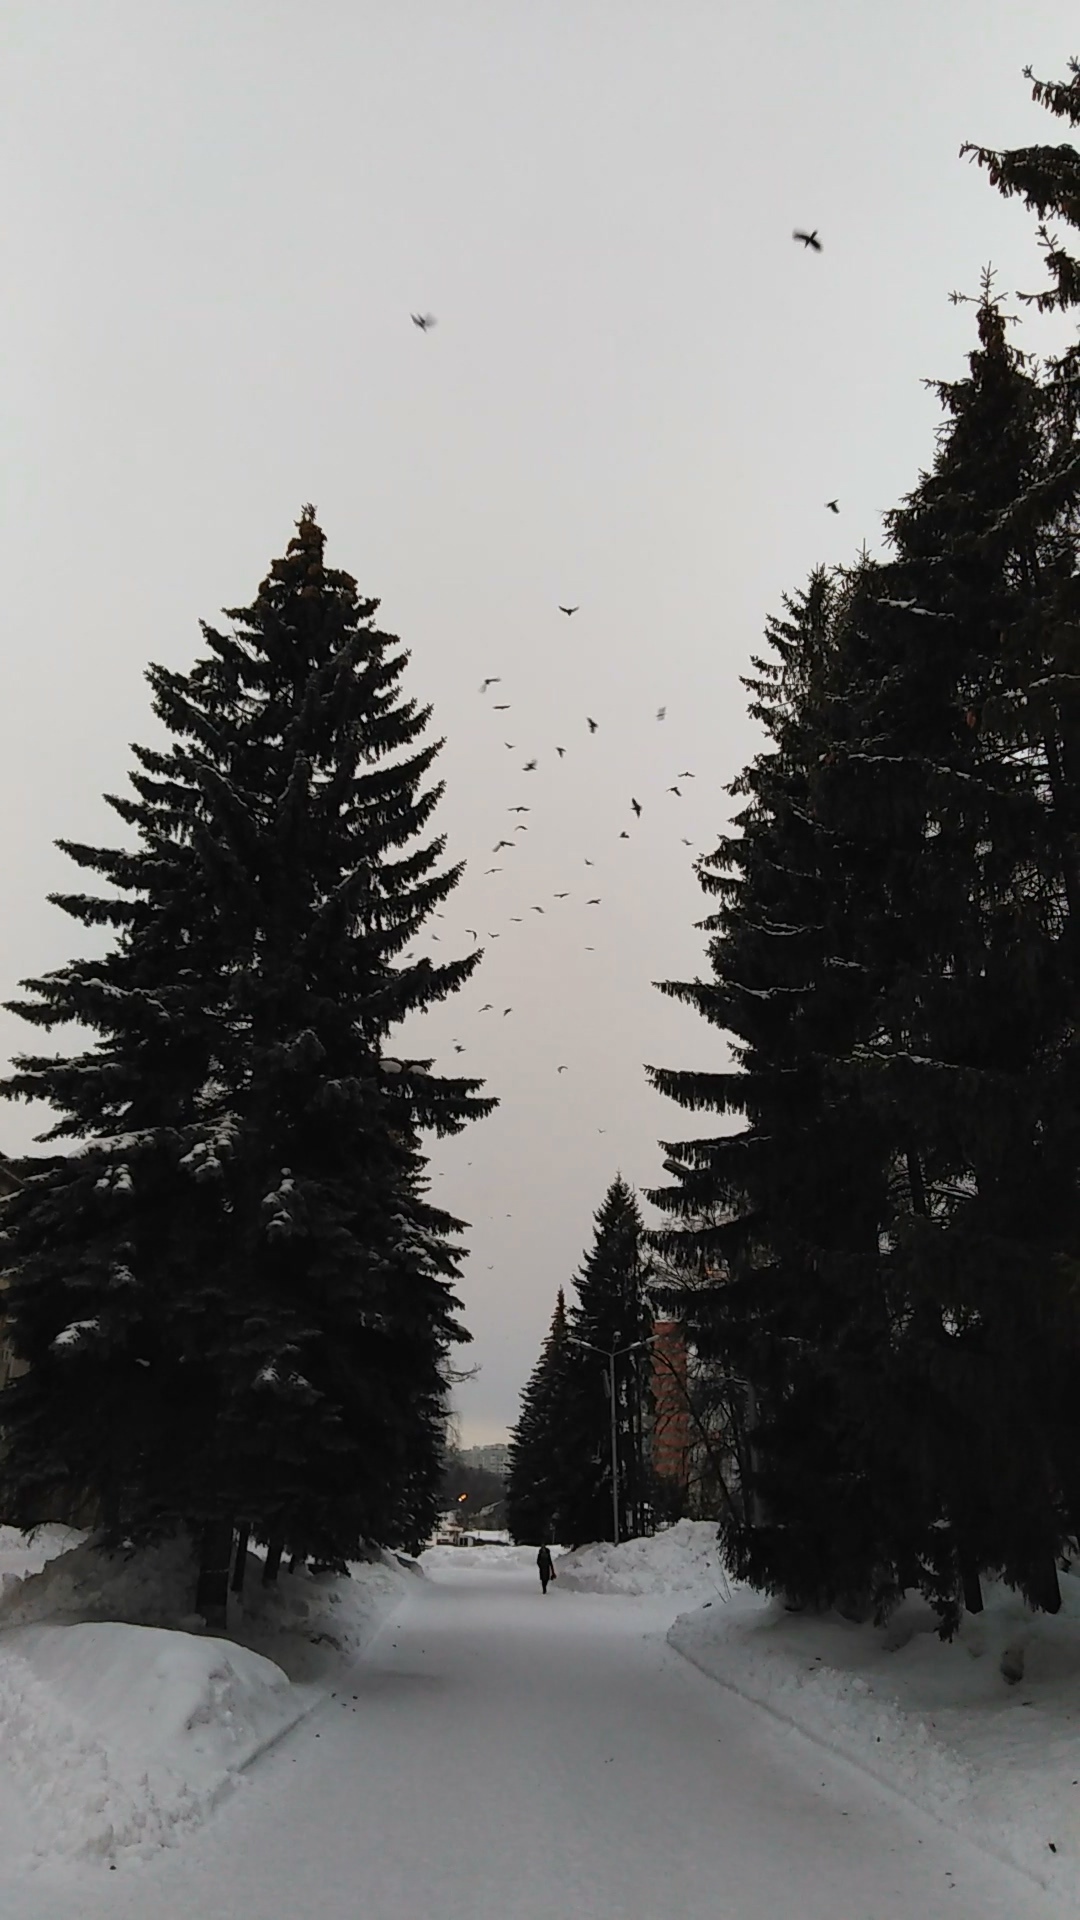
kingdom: Animalia
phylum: Chordata
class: Aves
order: Passeriformes
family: Corvidae
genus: Coloeus
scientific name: Coloeus monedula
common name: Western jackdaw
